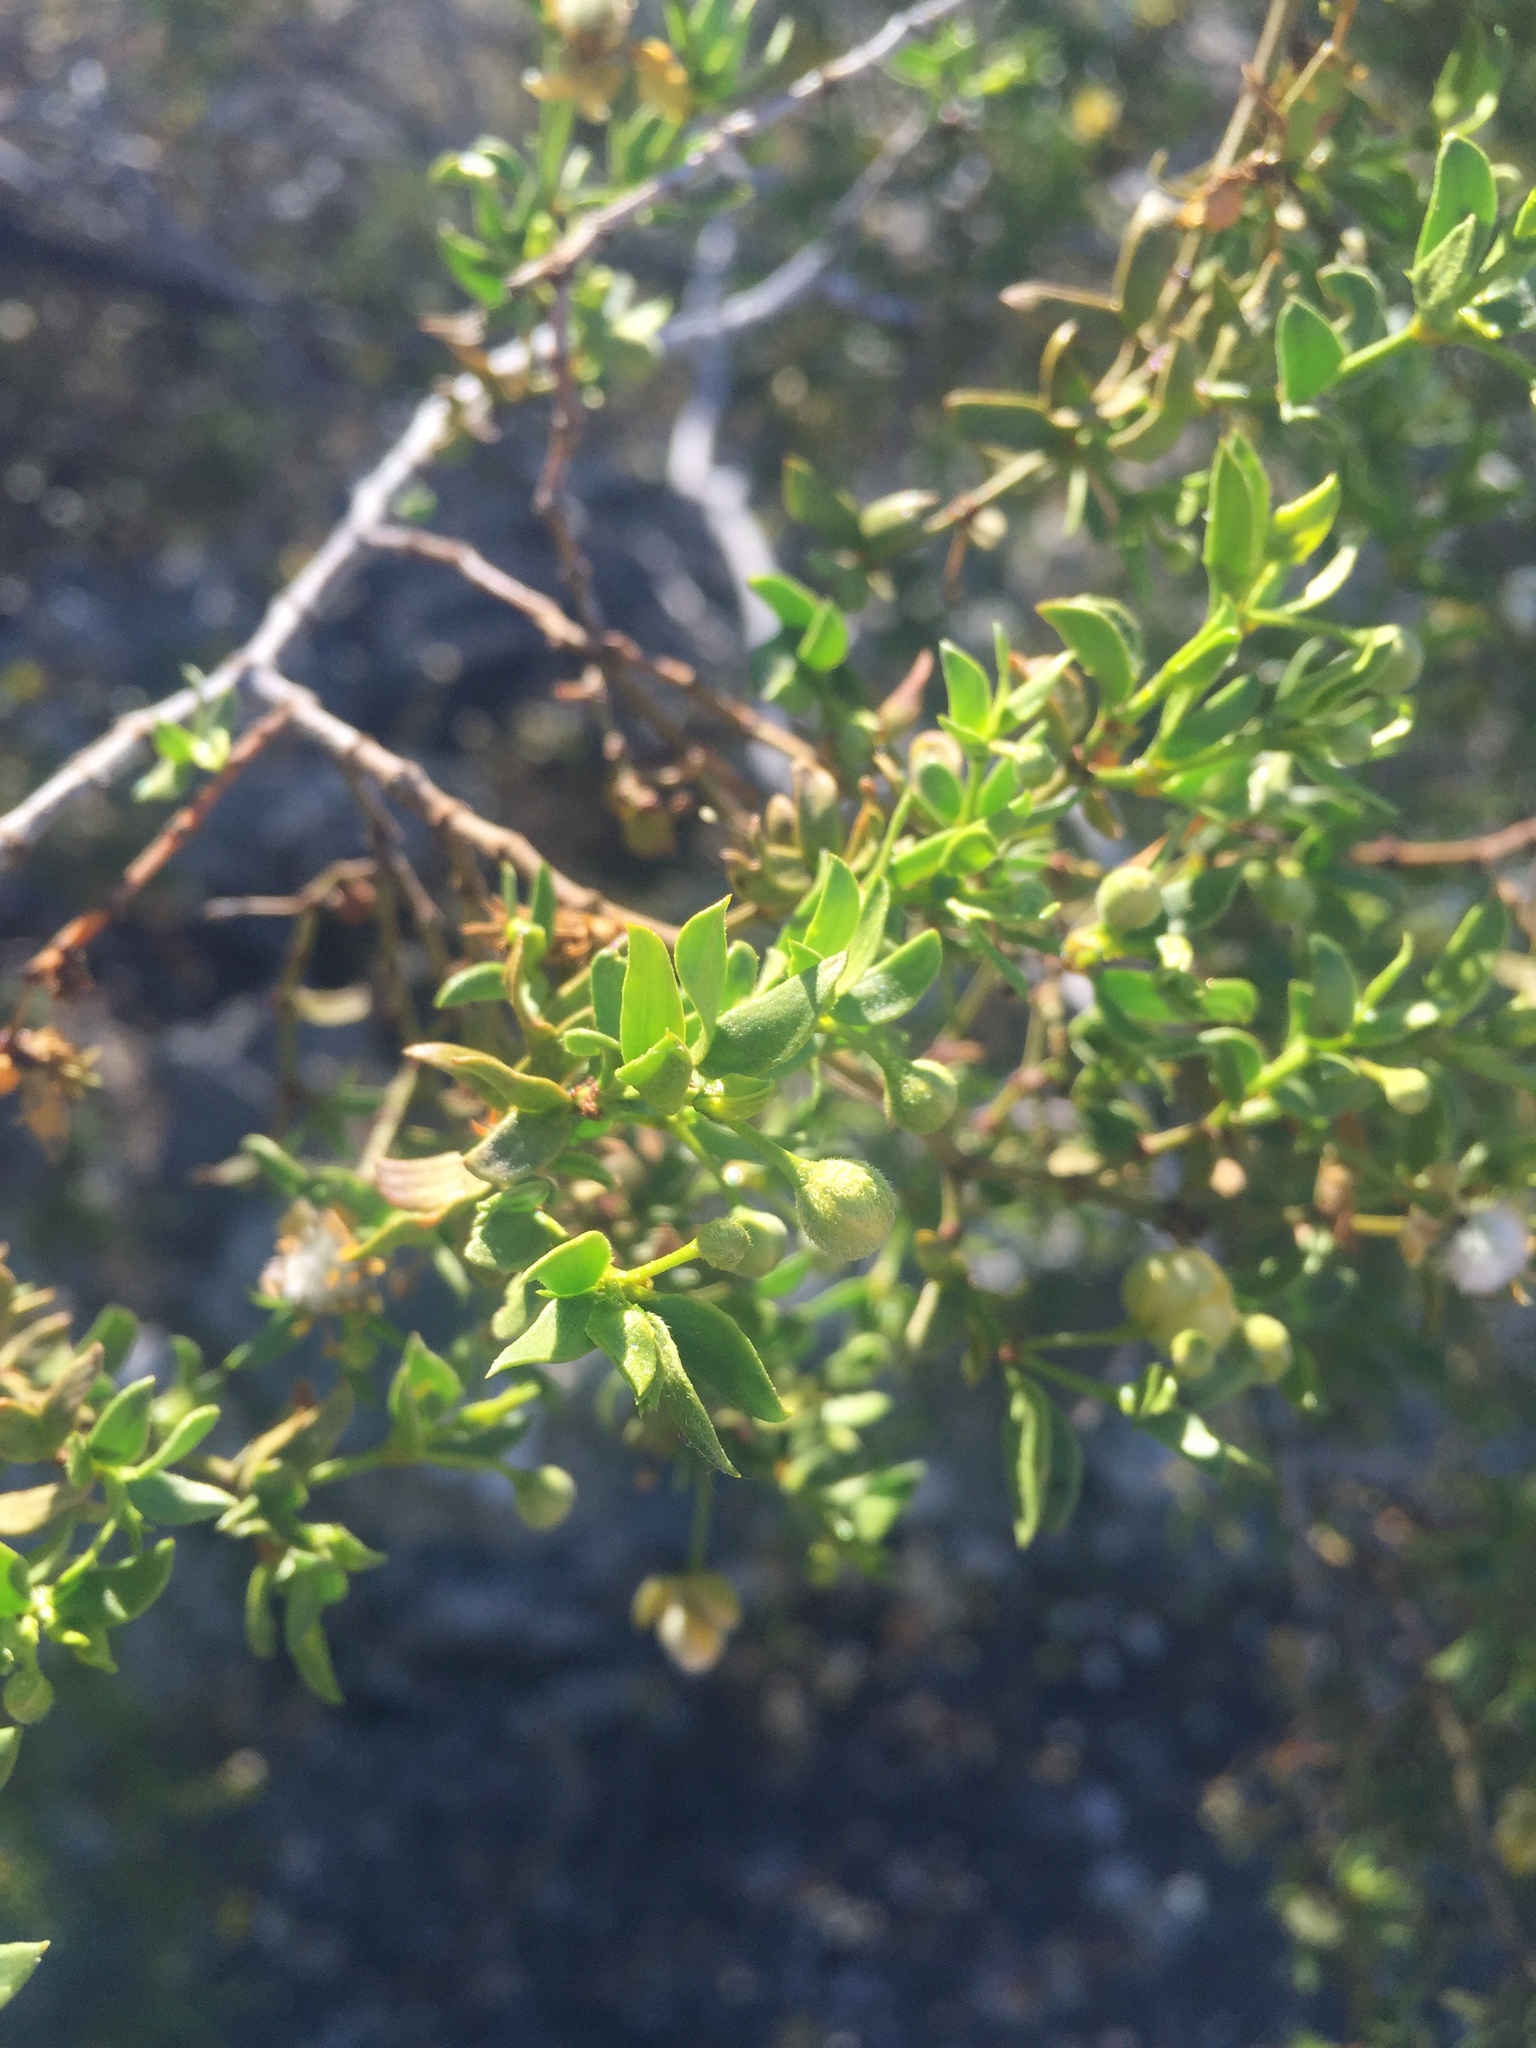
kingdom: Plantae
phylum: Tracheophyta
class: Magnoliopsida
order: Zygophyllales
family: Zygophyllaceae
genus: Larrea
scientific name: Larrea tridentata
